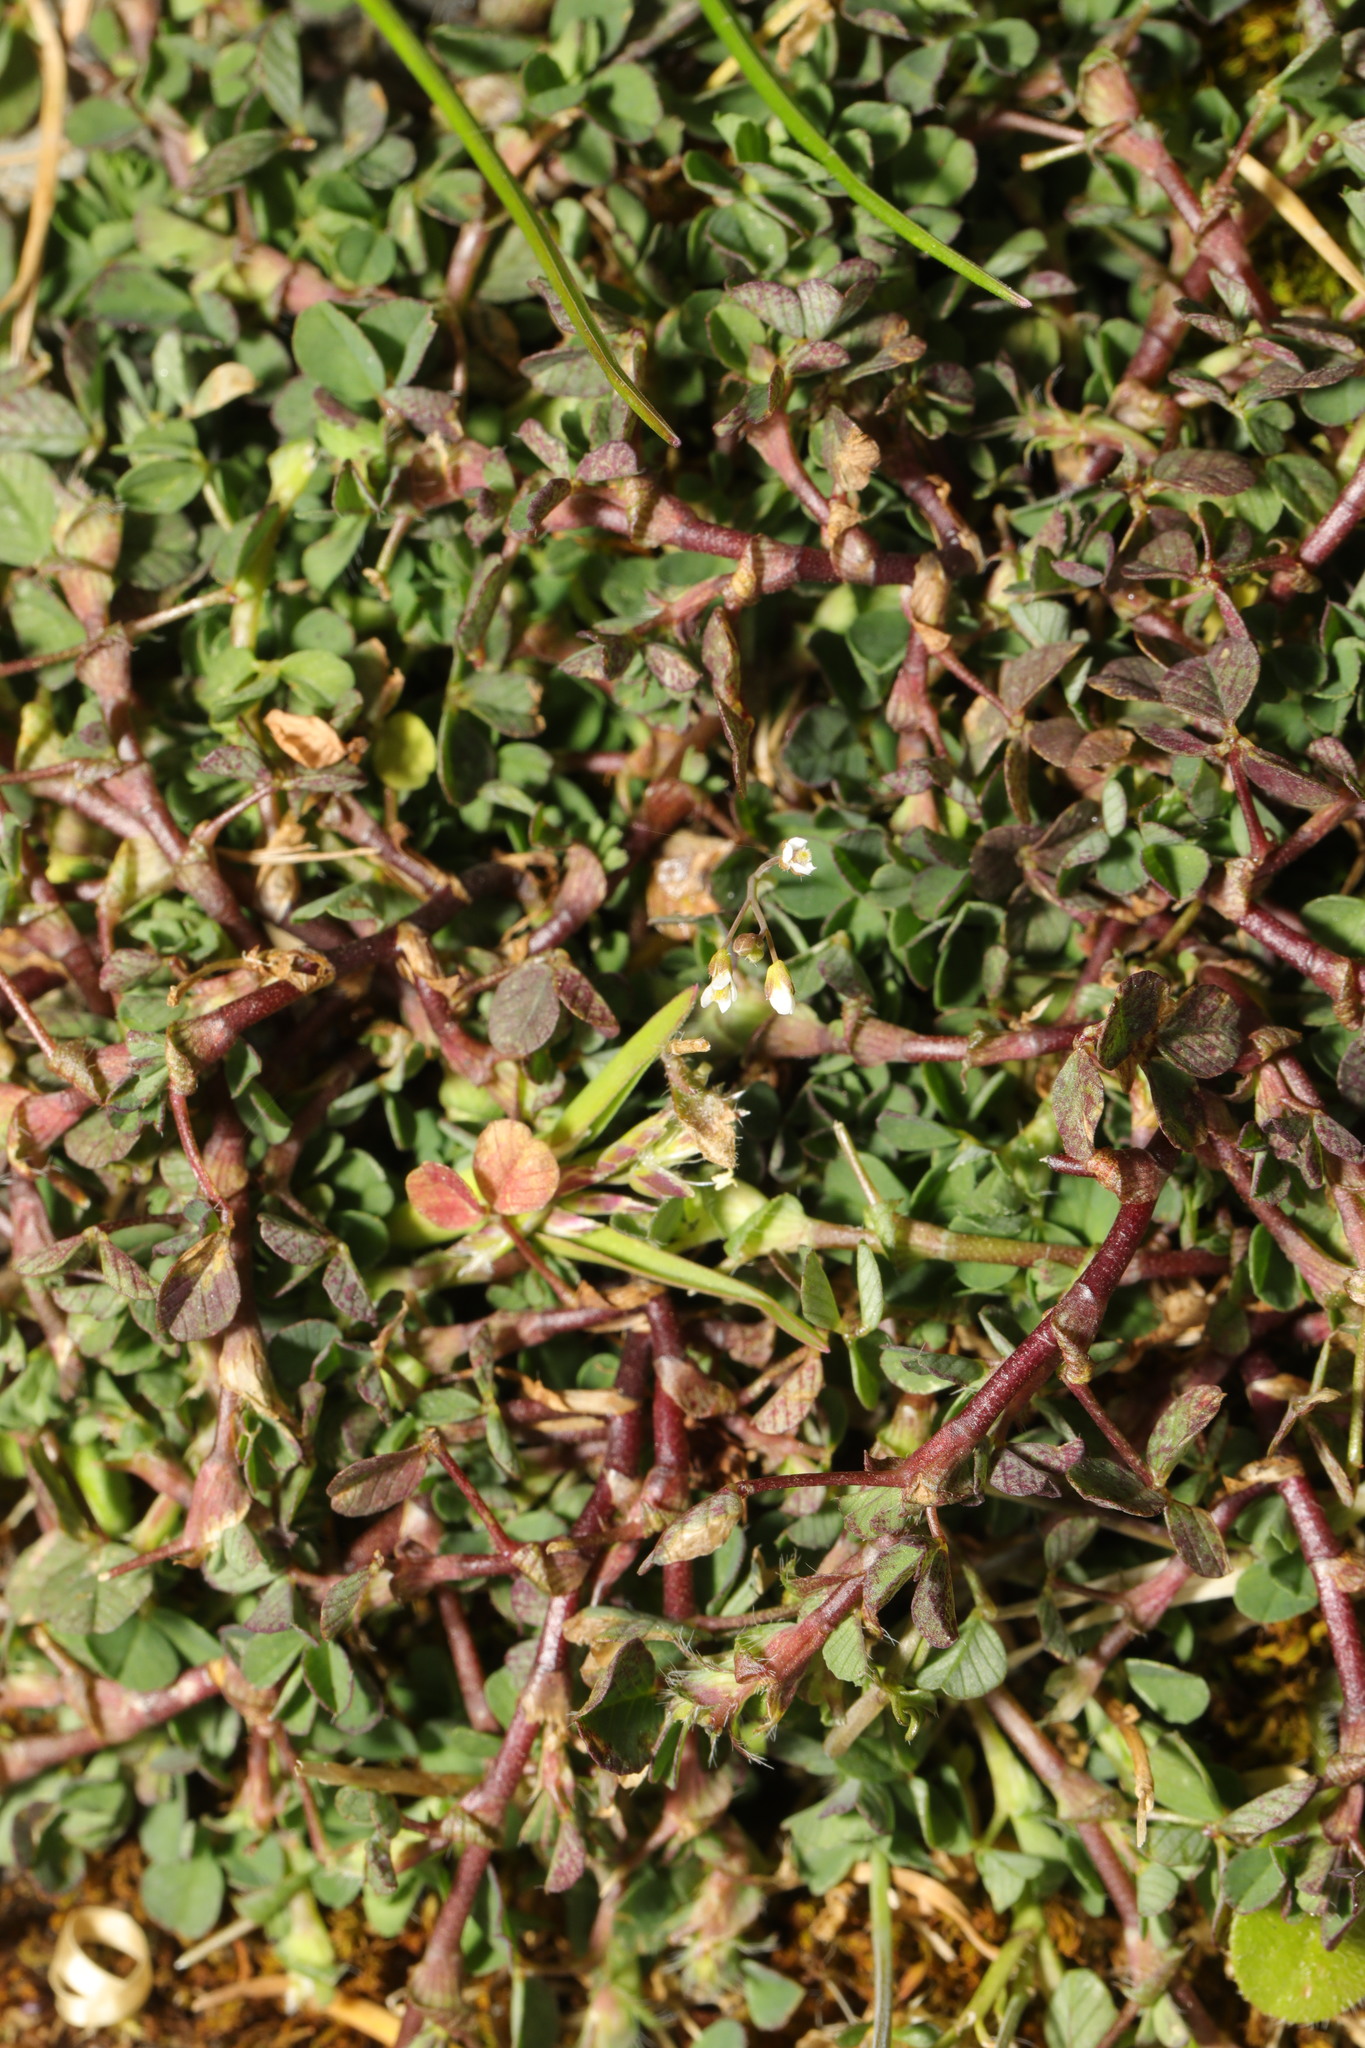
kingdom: Plantae
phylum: Tracheophyta
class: Magnoliopsida
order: Fabales
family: Fabaceae
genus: Trifolium
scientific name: Trifolium dubium
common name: Suckling clover
